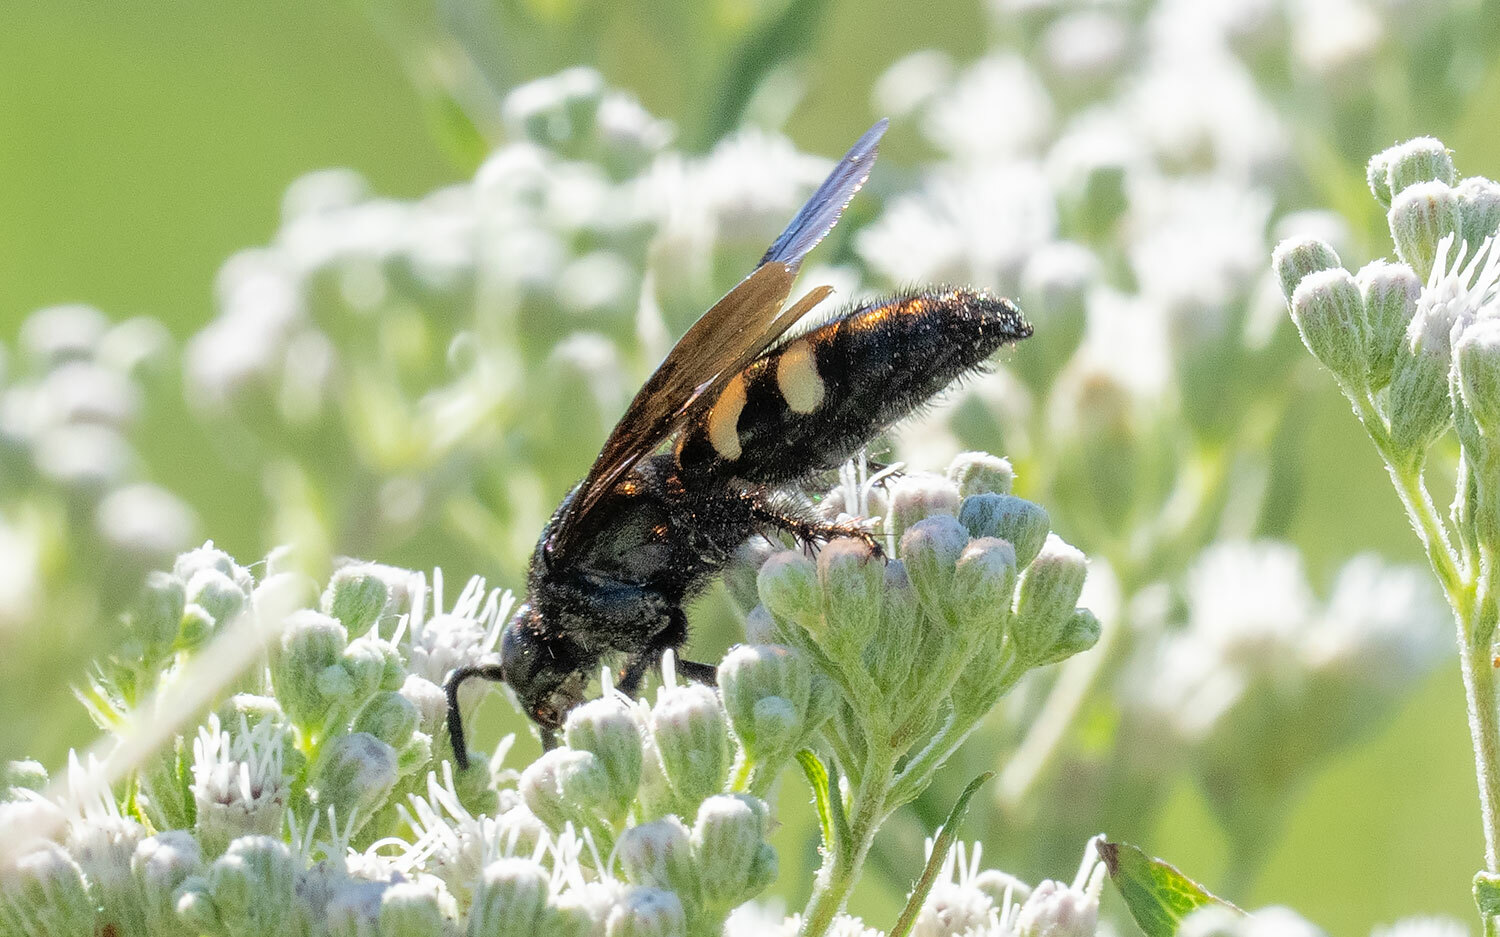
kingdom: Animalia
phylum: Arthropoda
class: Insecta
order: Hymenoptera
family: Scoliidae
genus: Scolia
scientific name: Scolia bicincta
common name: Double-banded scoliid wasp
